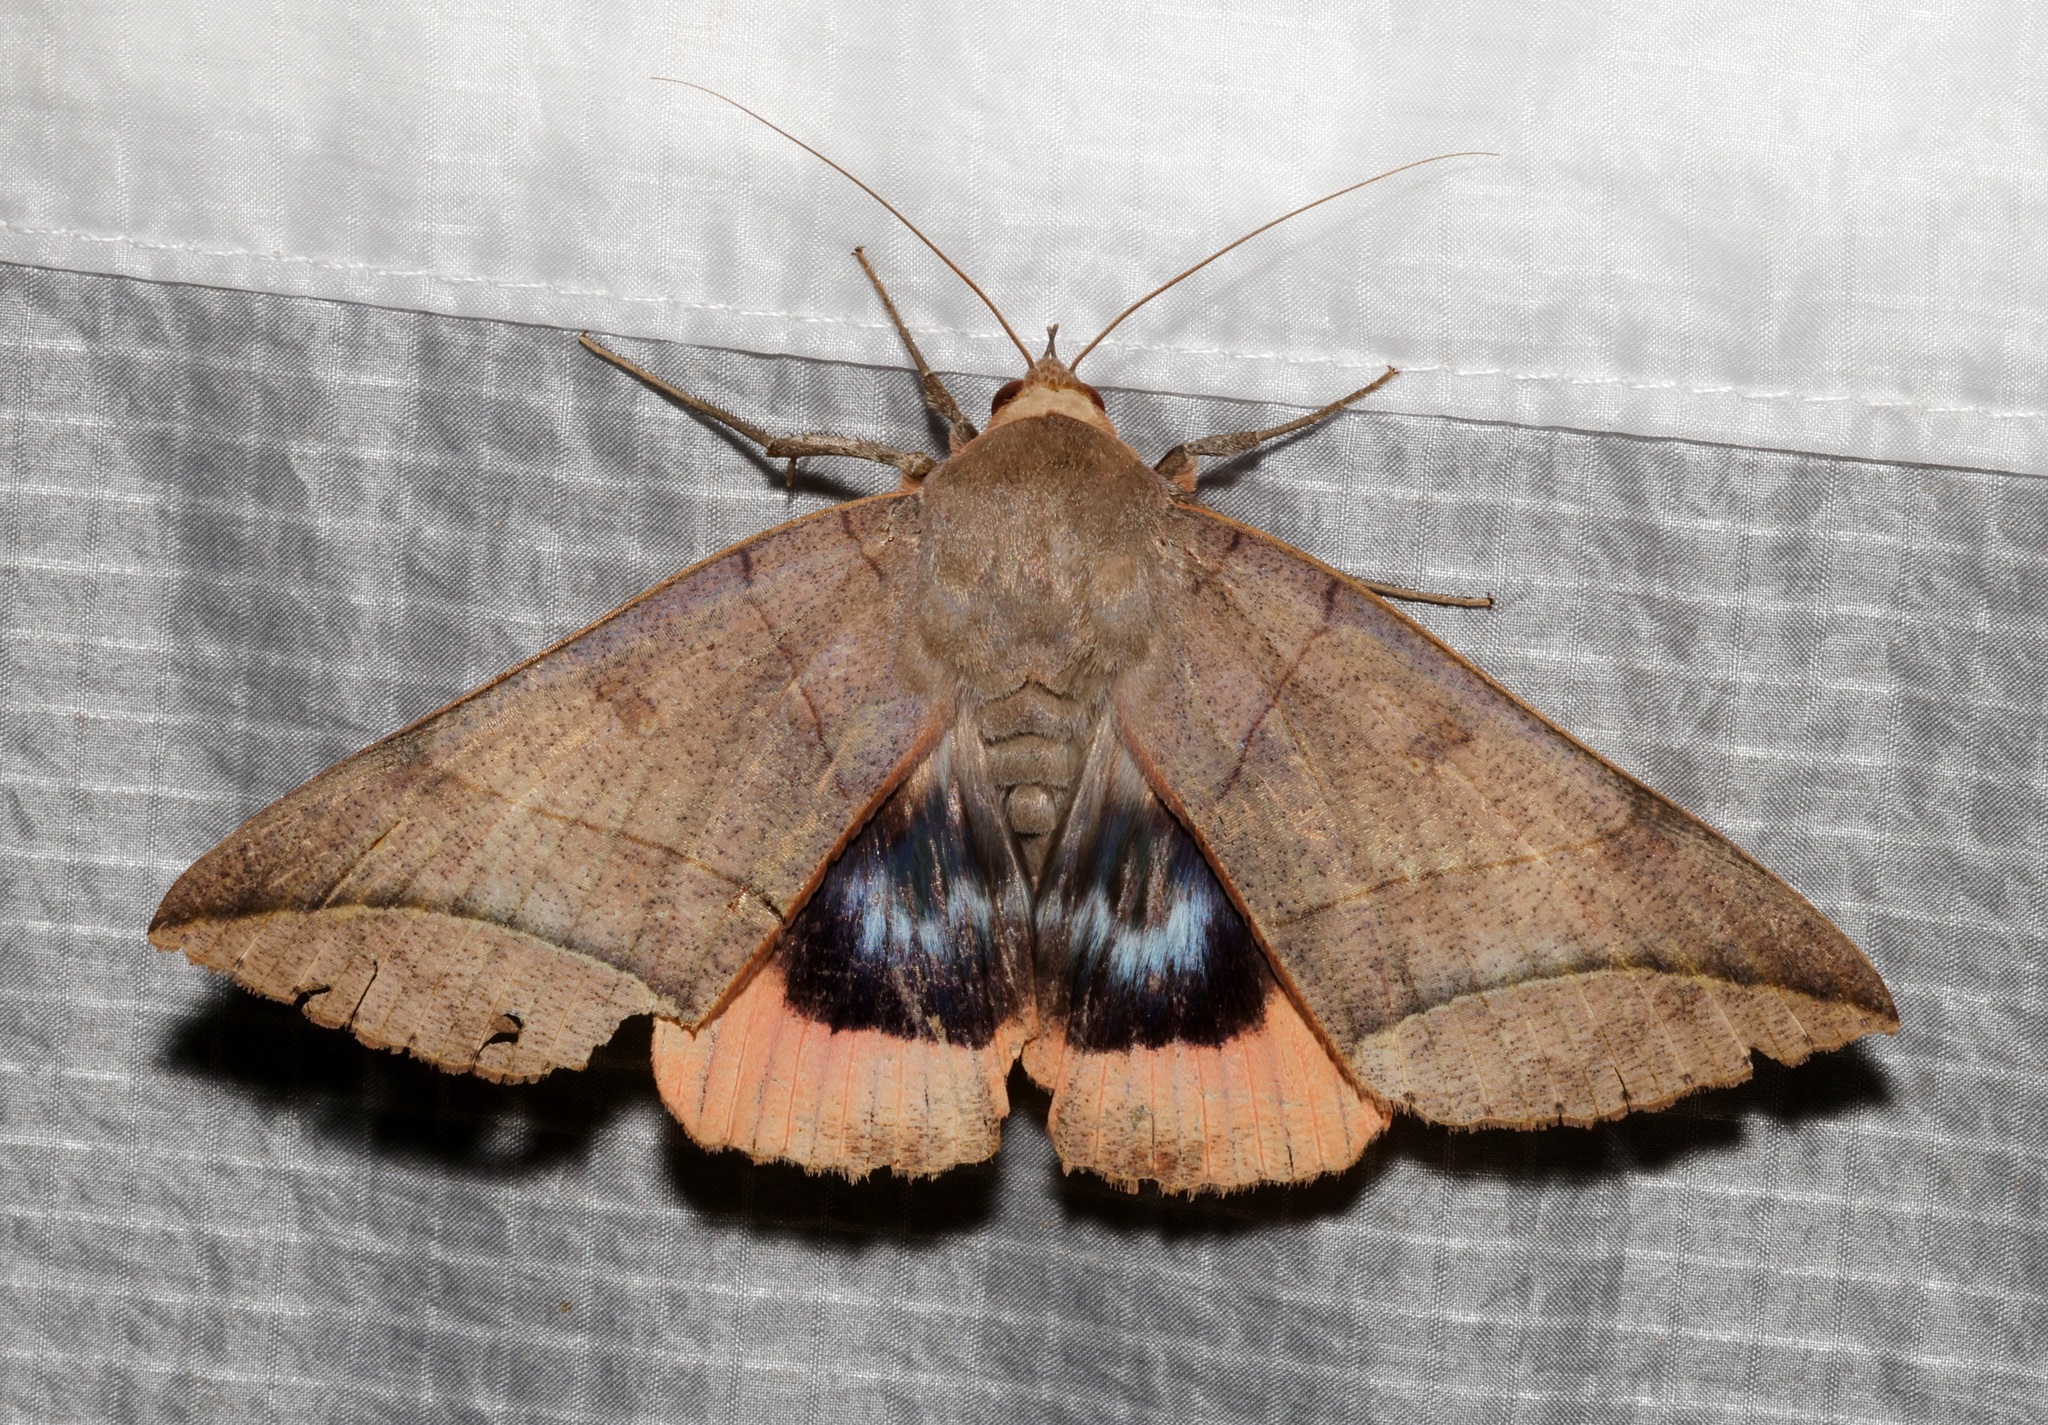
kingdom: Animalia
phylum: Arthropoda
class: Insecta
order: Lepidoptera
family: Erebidae
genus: Thyas
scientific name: Thyas juno
